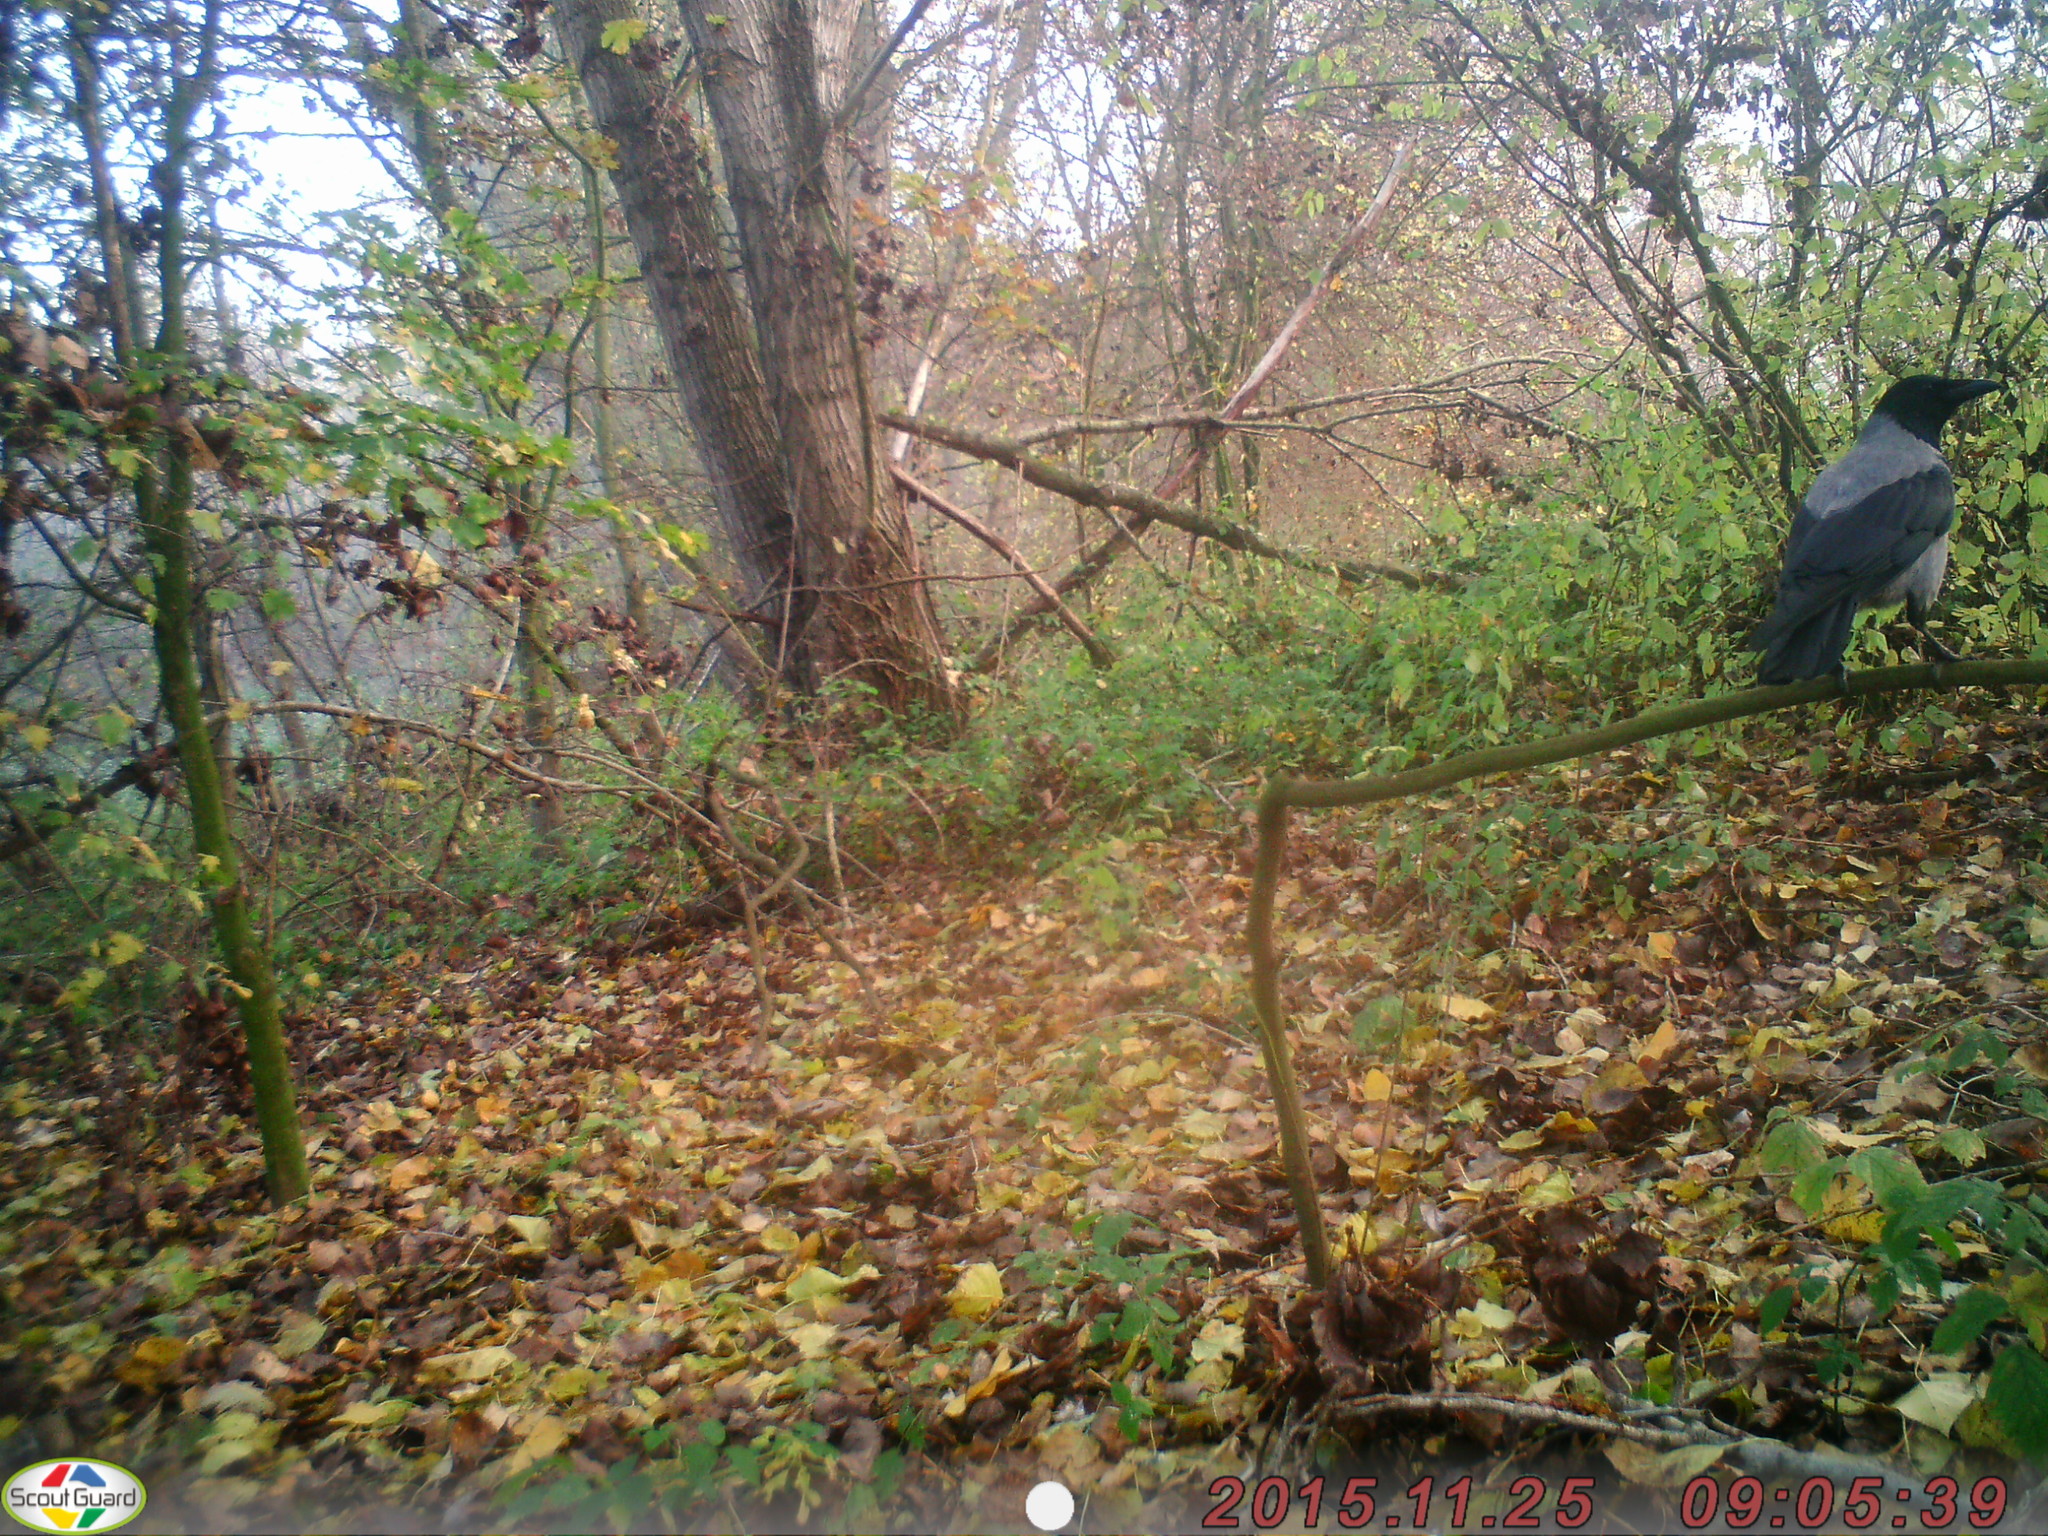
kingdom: Animalia
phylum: Chordata
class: Aves
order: Passeriformes
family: Corvidae
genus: Corvus
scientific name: Corvus cornix
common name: Hooded crow
